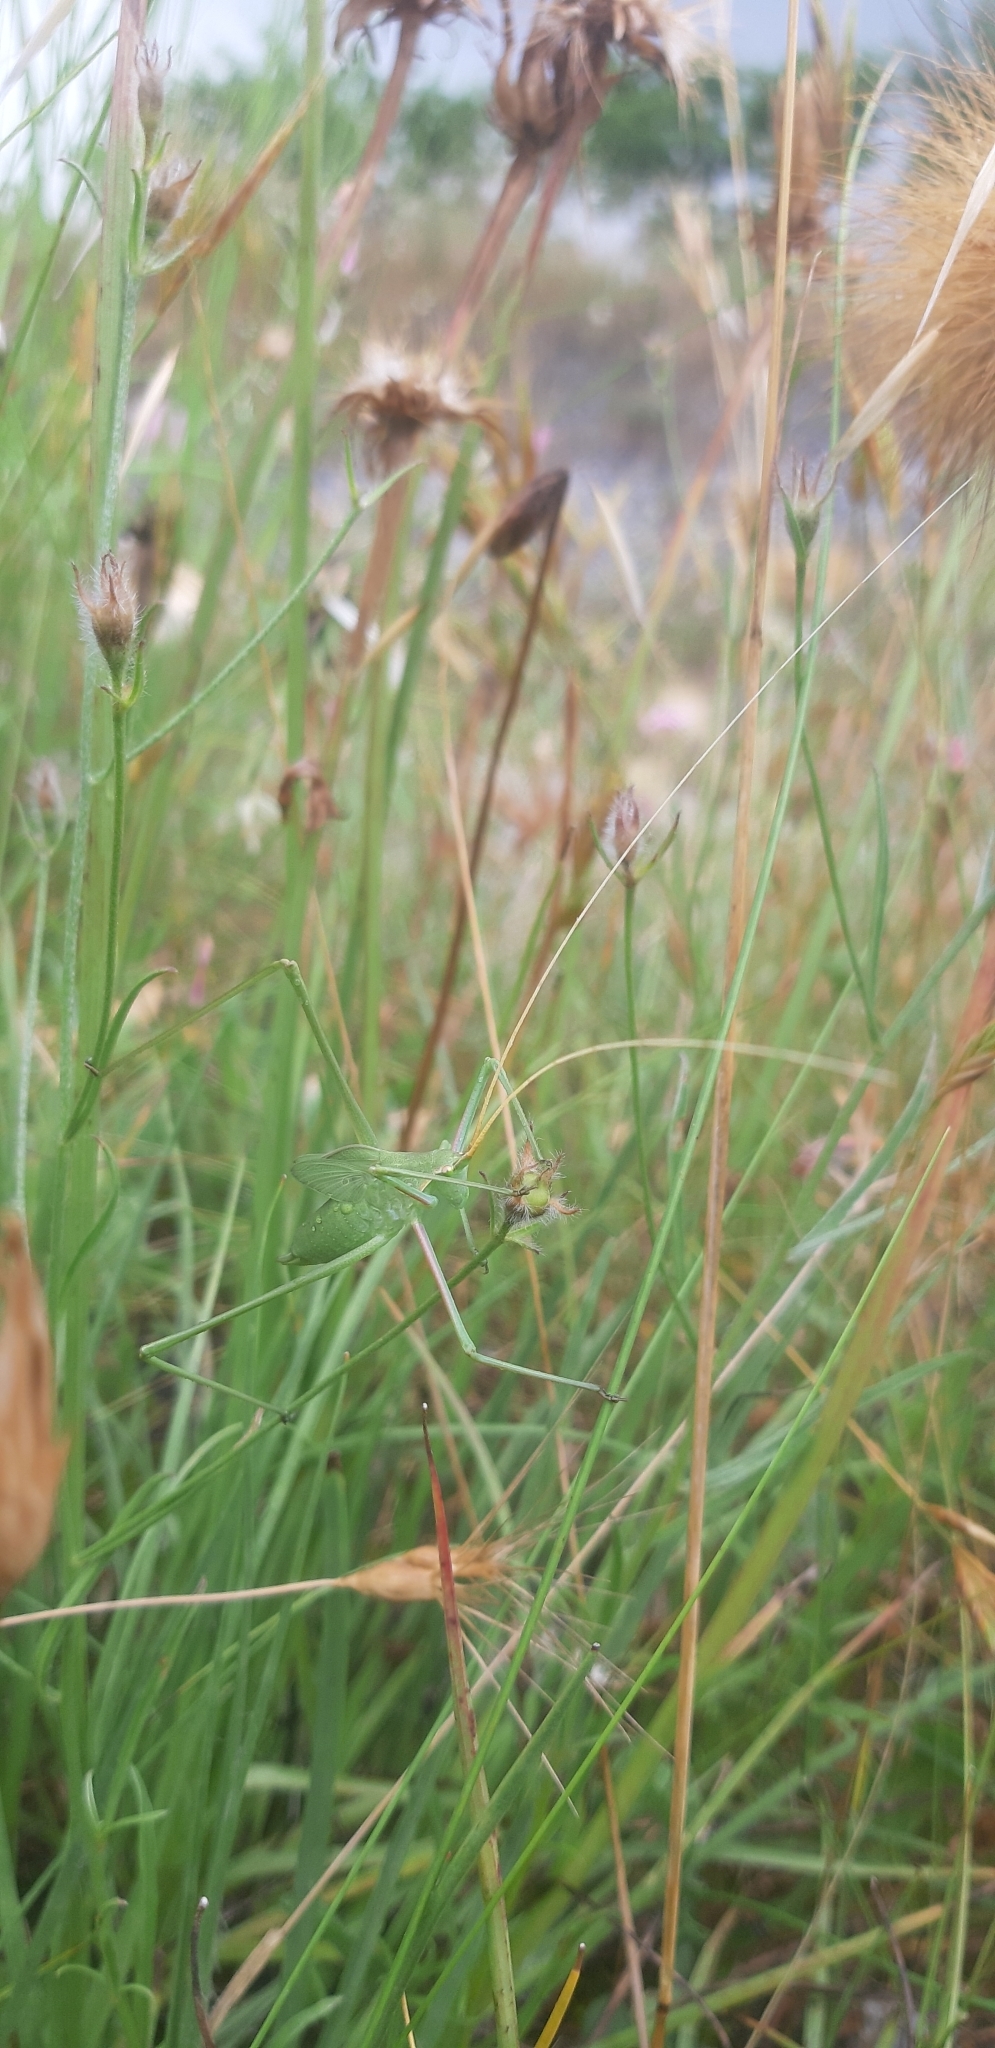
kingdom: Animalia
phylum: Arthropoda
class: Insecta
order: Orthoptera
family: Tettigoniidae
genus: Acrometopa
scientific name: Acrometopa italica
